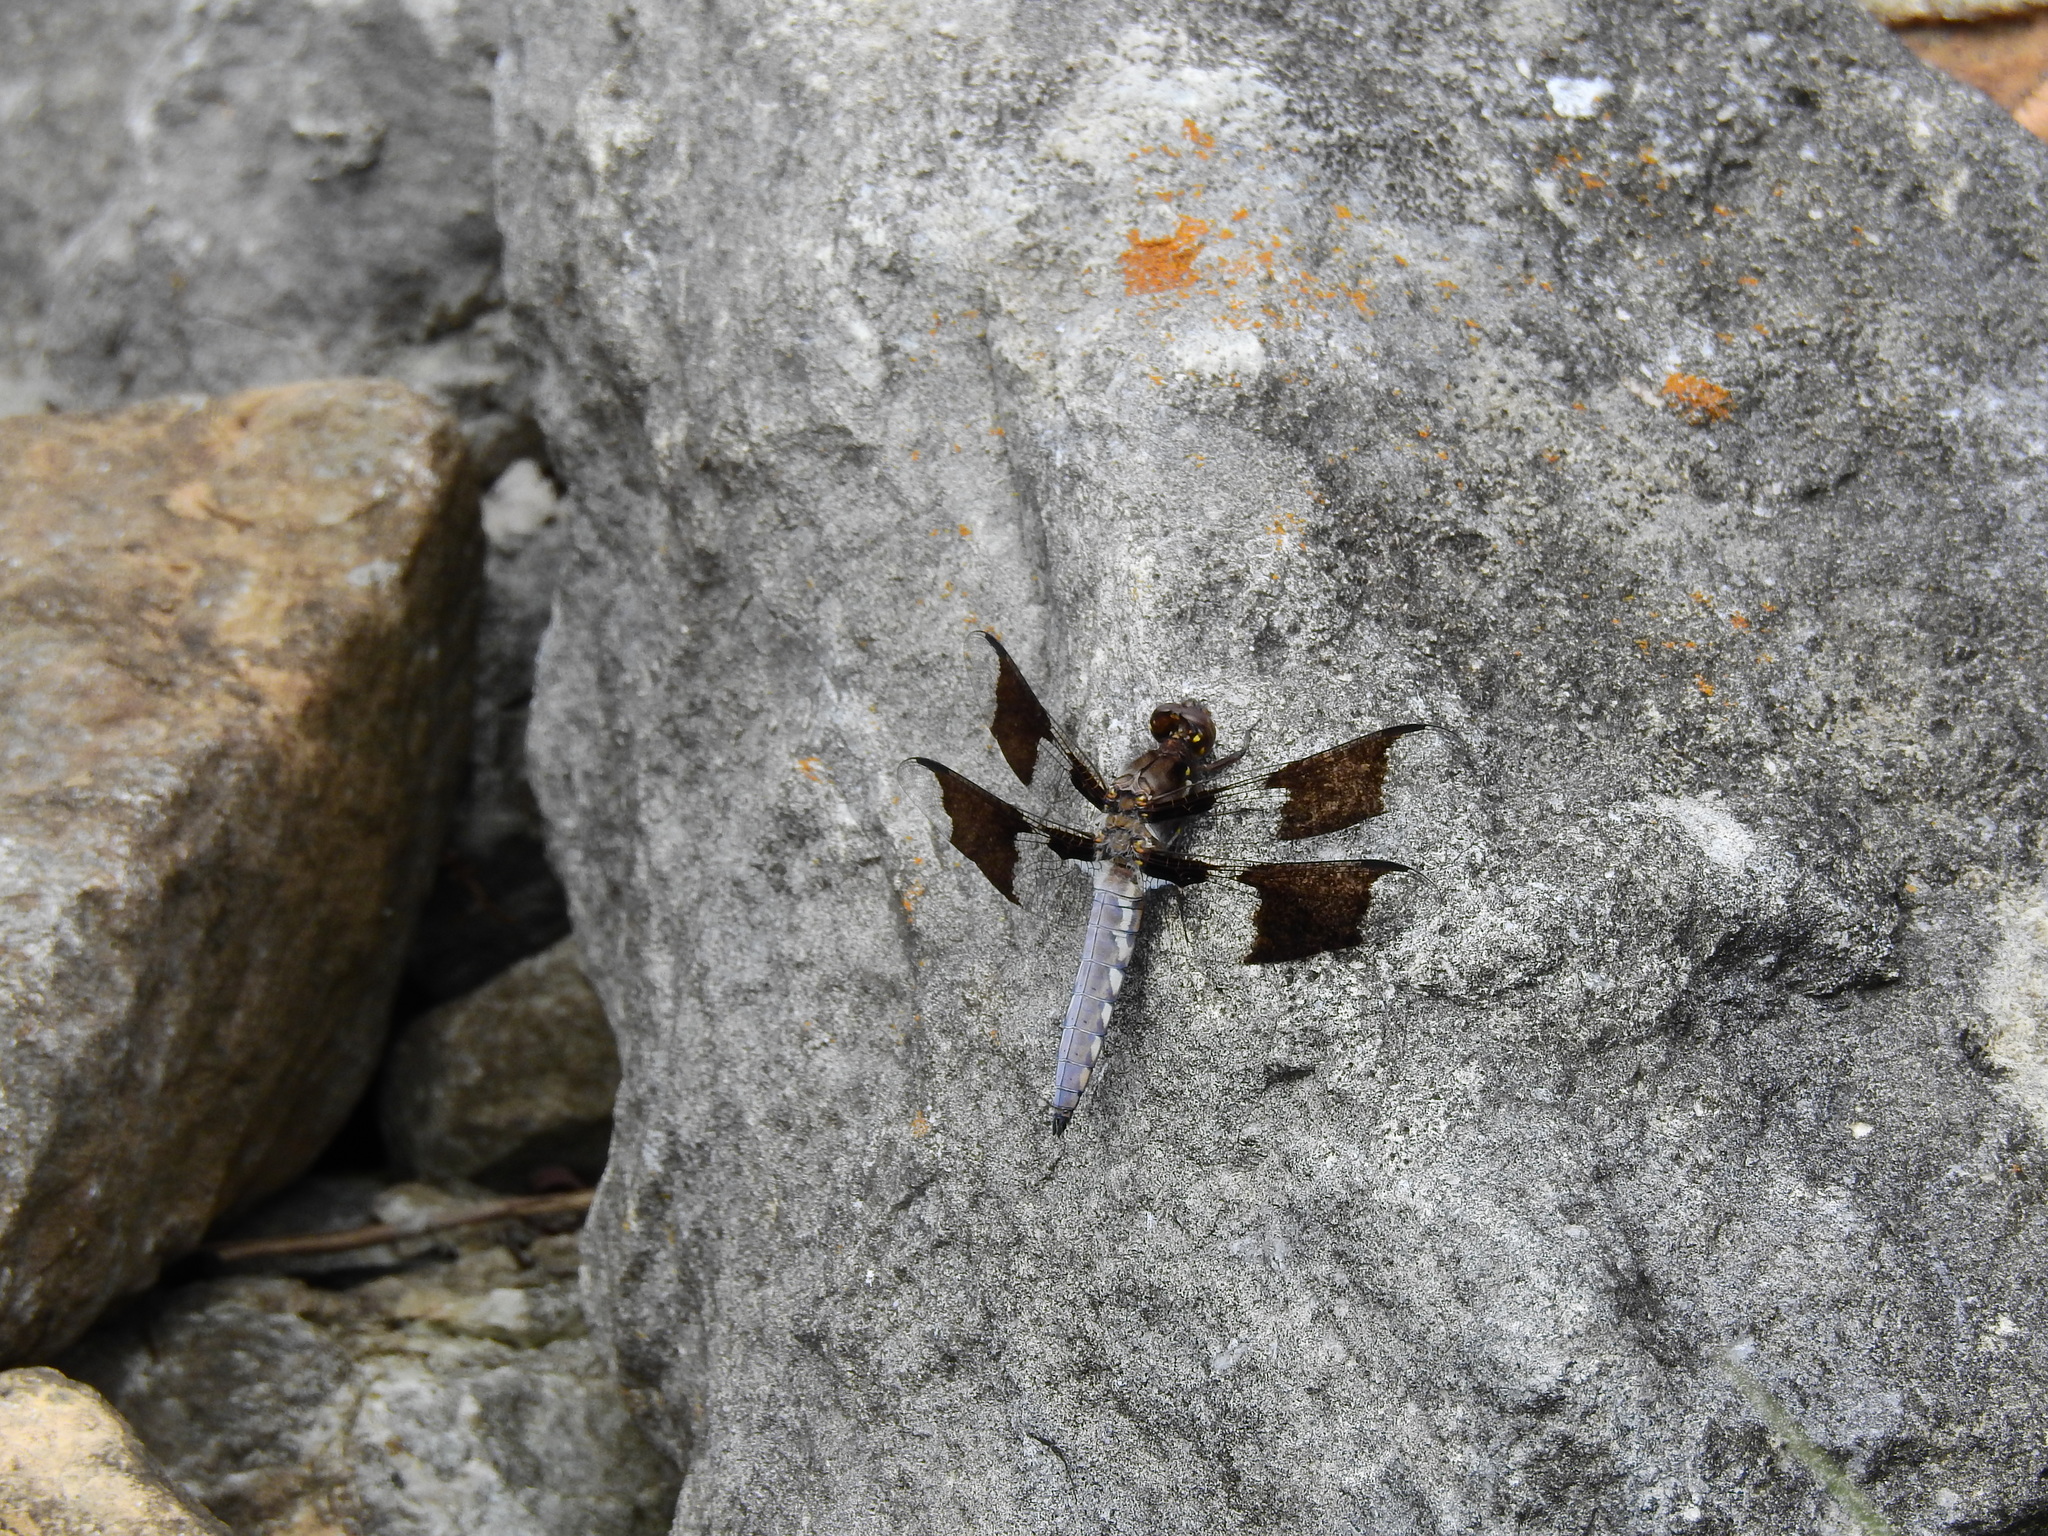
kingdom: Animalia
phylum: Arthropoda
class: Insecta
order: Odonata
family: Libellulidae
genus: Plathemis
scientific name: Plathemis lydia
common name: Common whitetail
